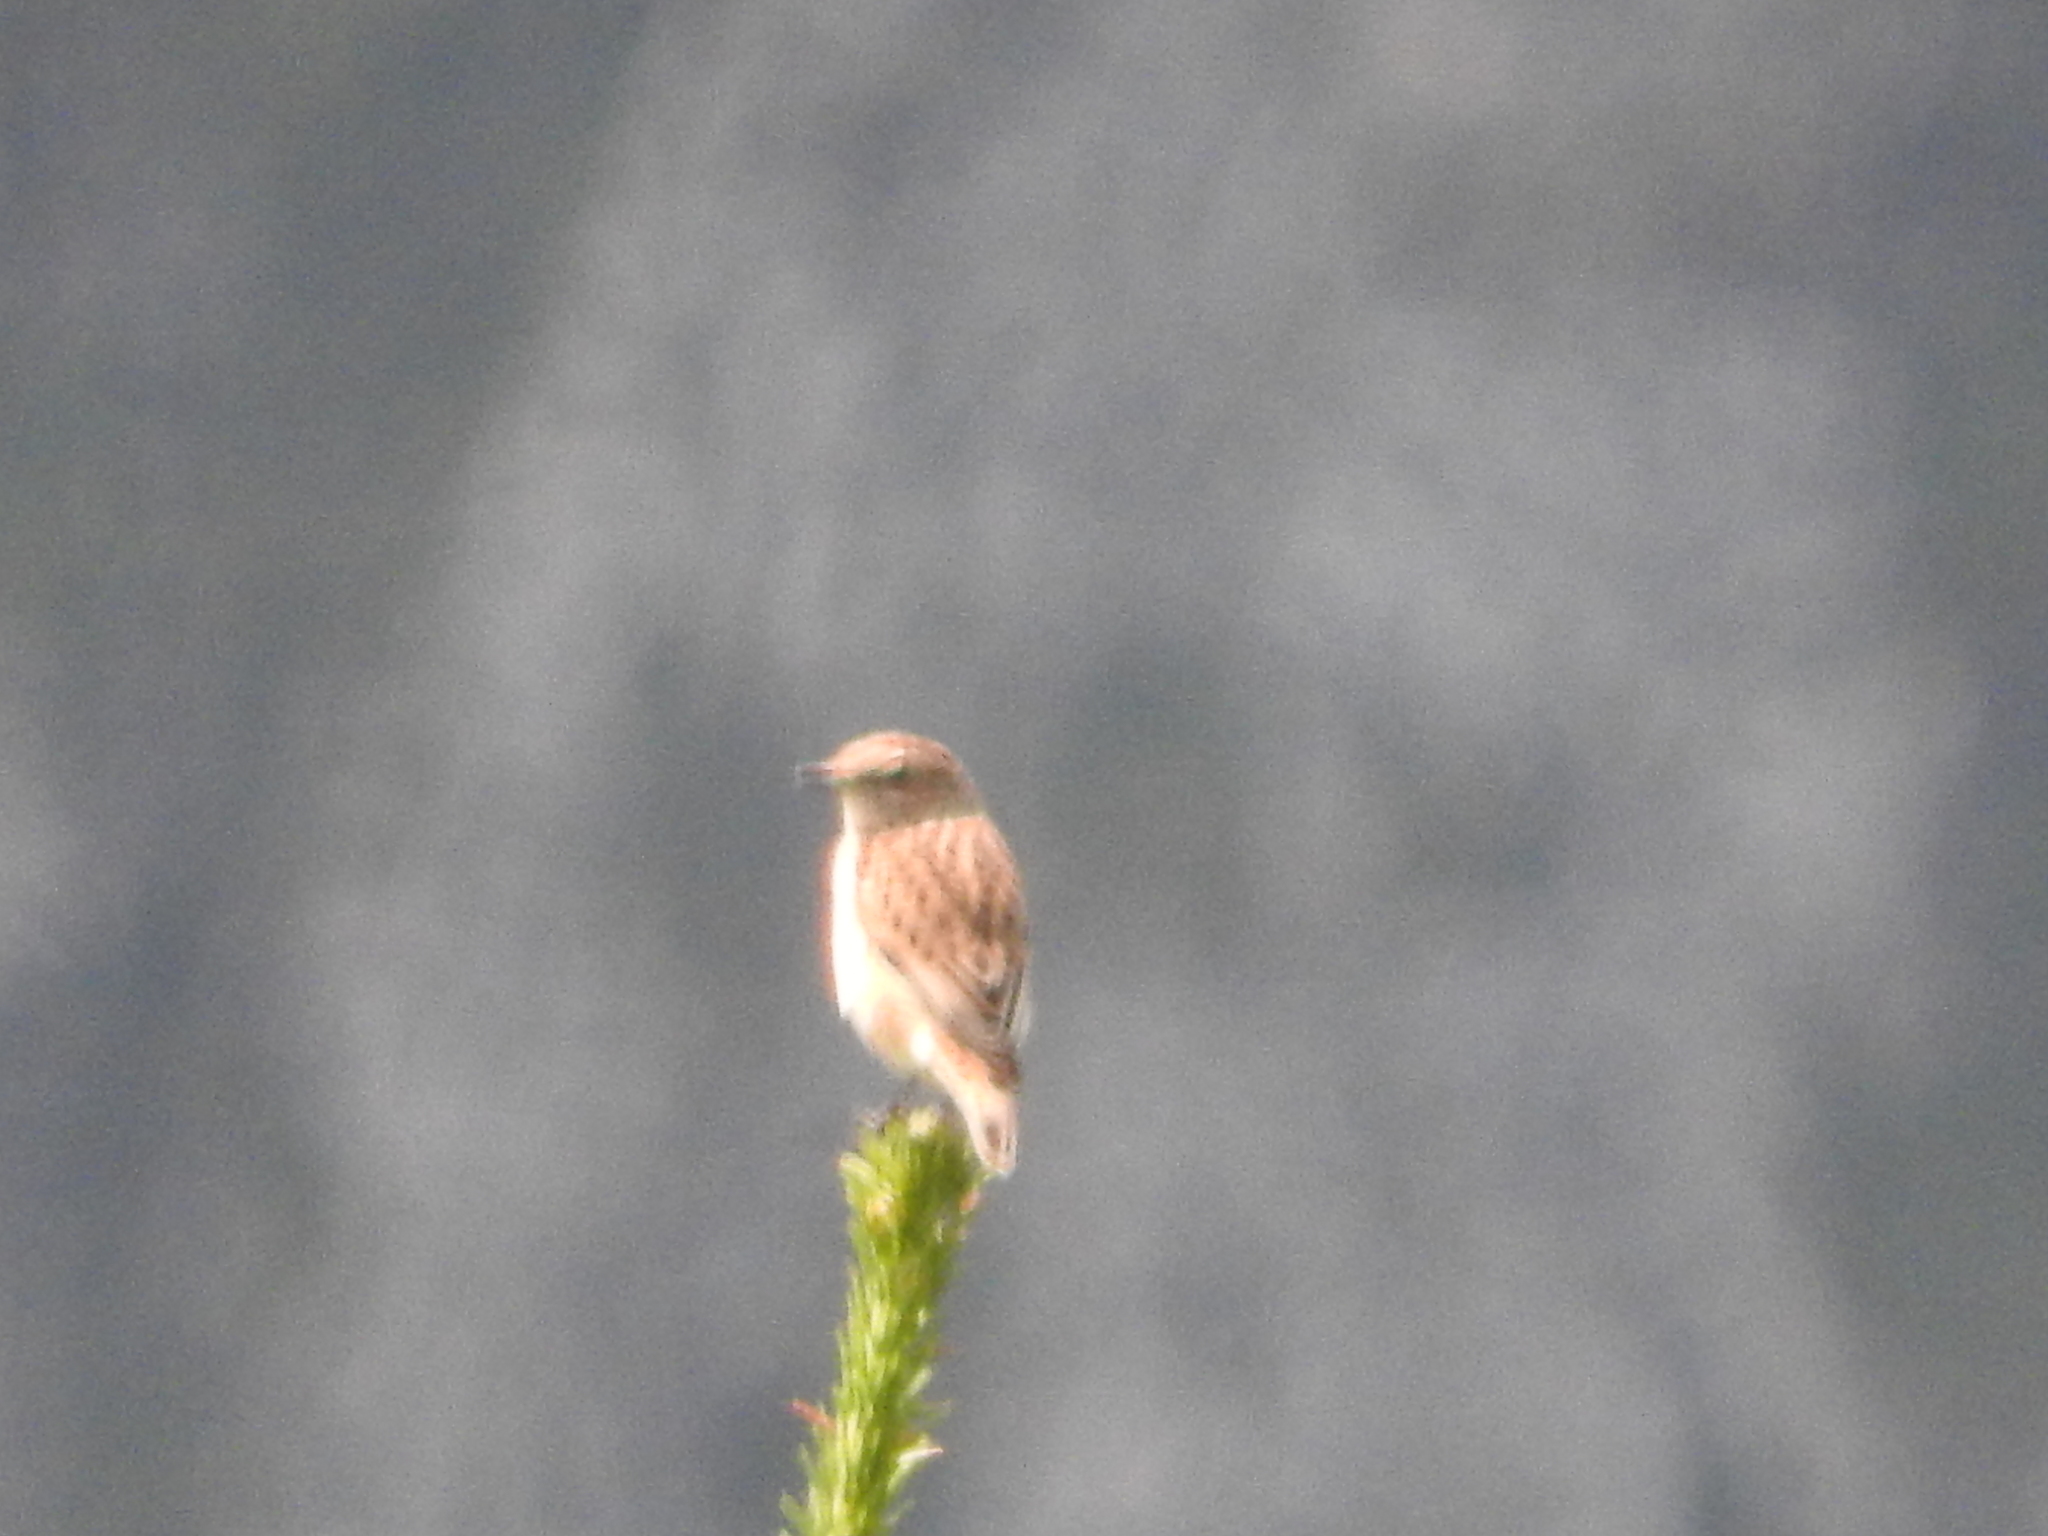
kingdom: Animalia
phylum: Chordata
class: Aves
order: Passeriformes
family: Muscicapidae
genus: Saxicola
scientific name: Saxicola rubetra
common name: Whinchat
